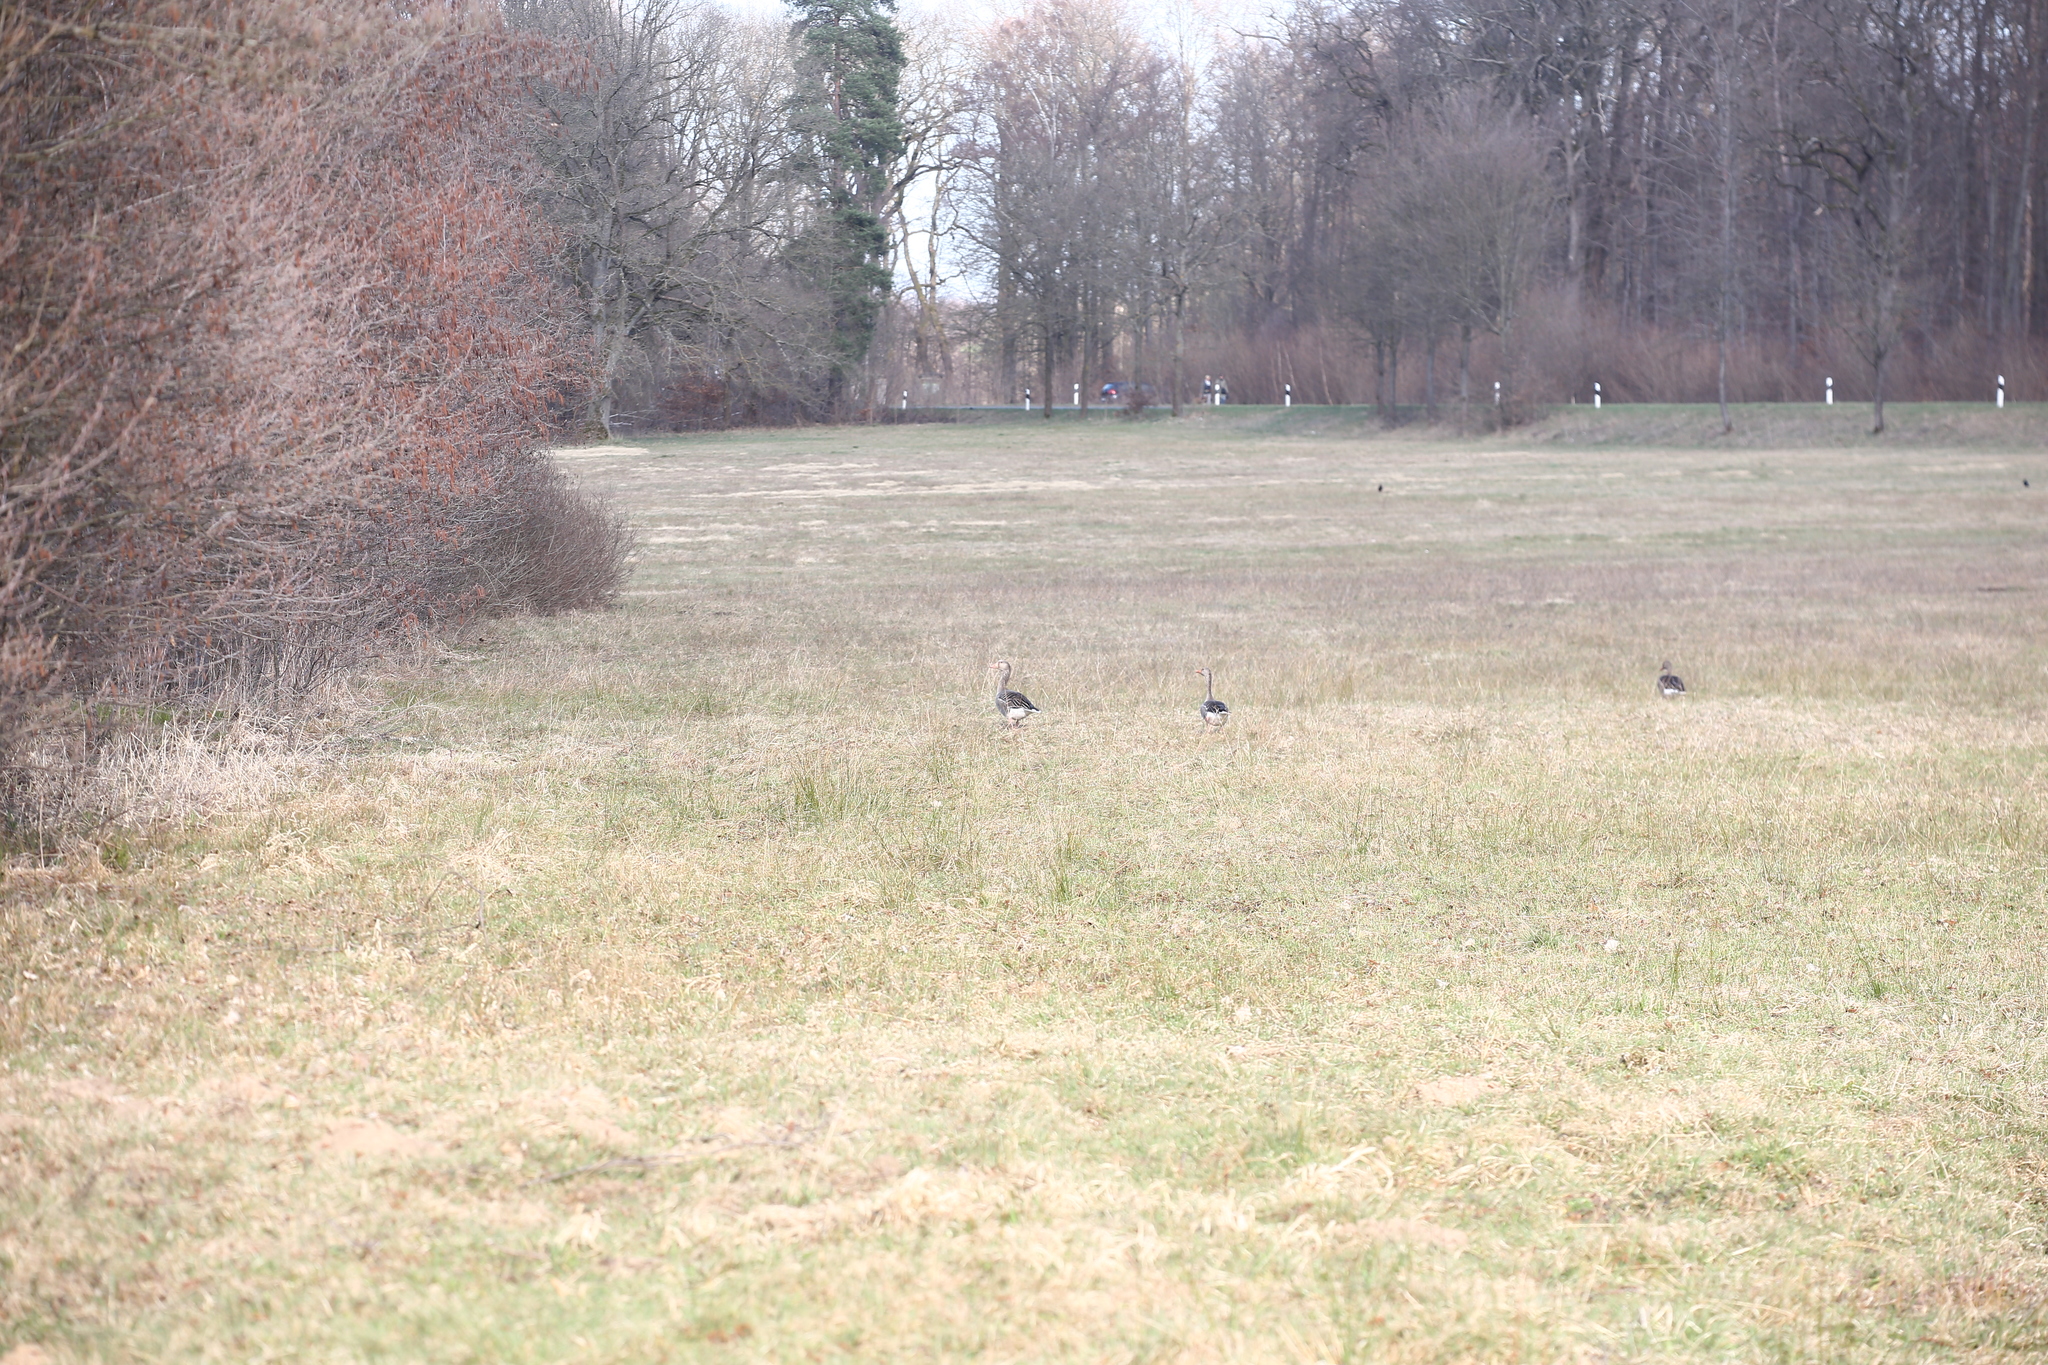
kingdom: Animalia
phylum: Chordata
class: Aves
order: Anseriformes
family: Anatidae
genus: Anser
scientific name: Anser anser
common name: Greylag goose
